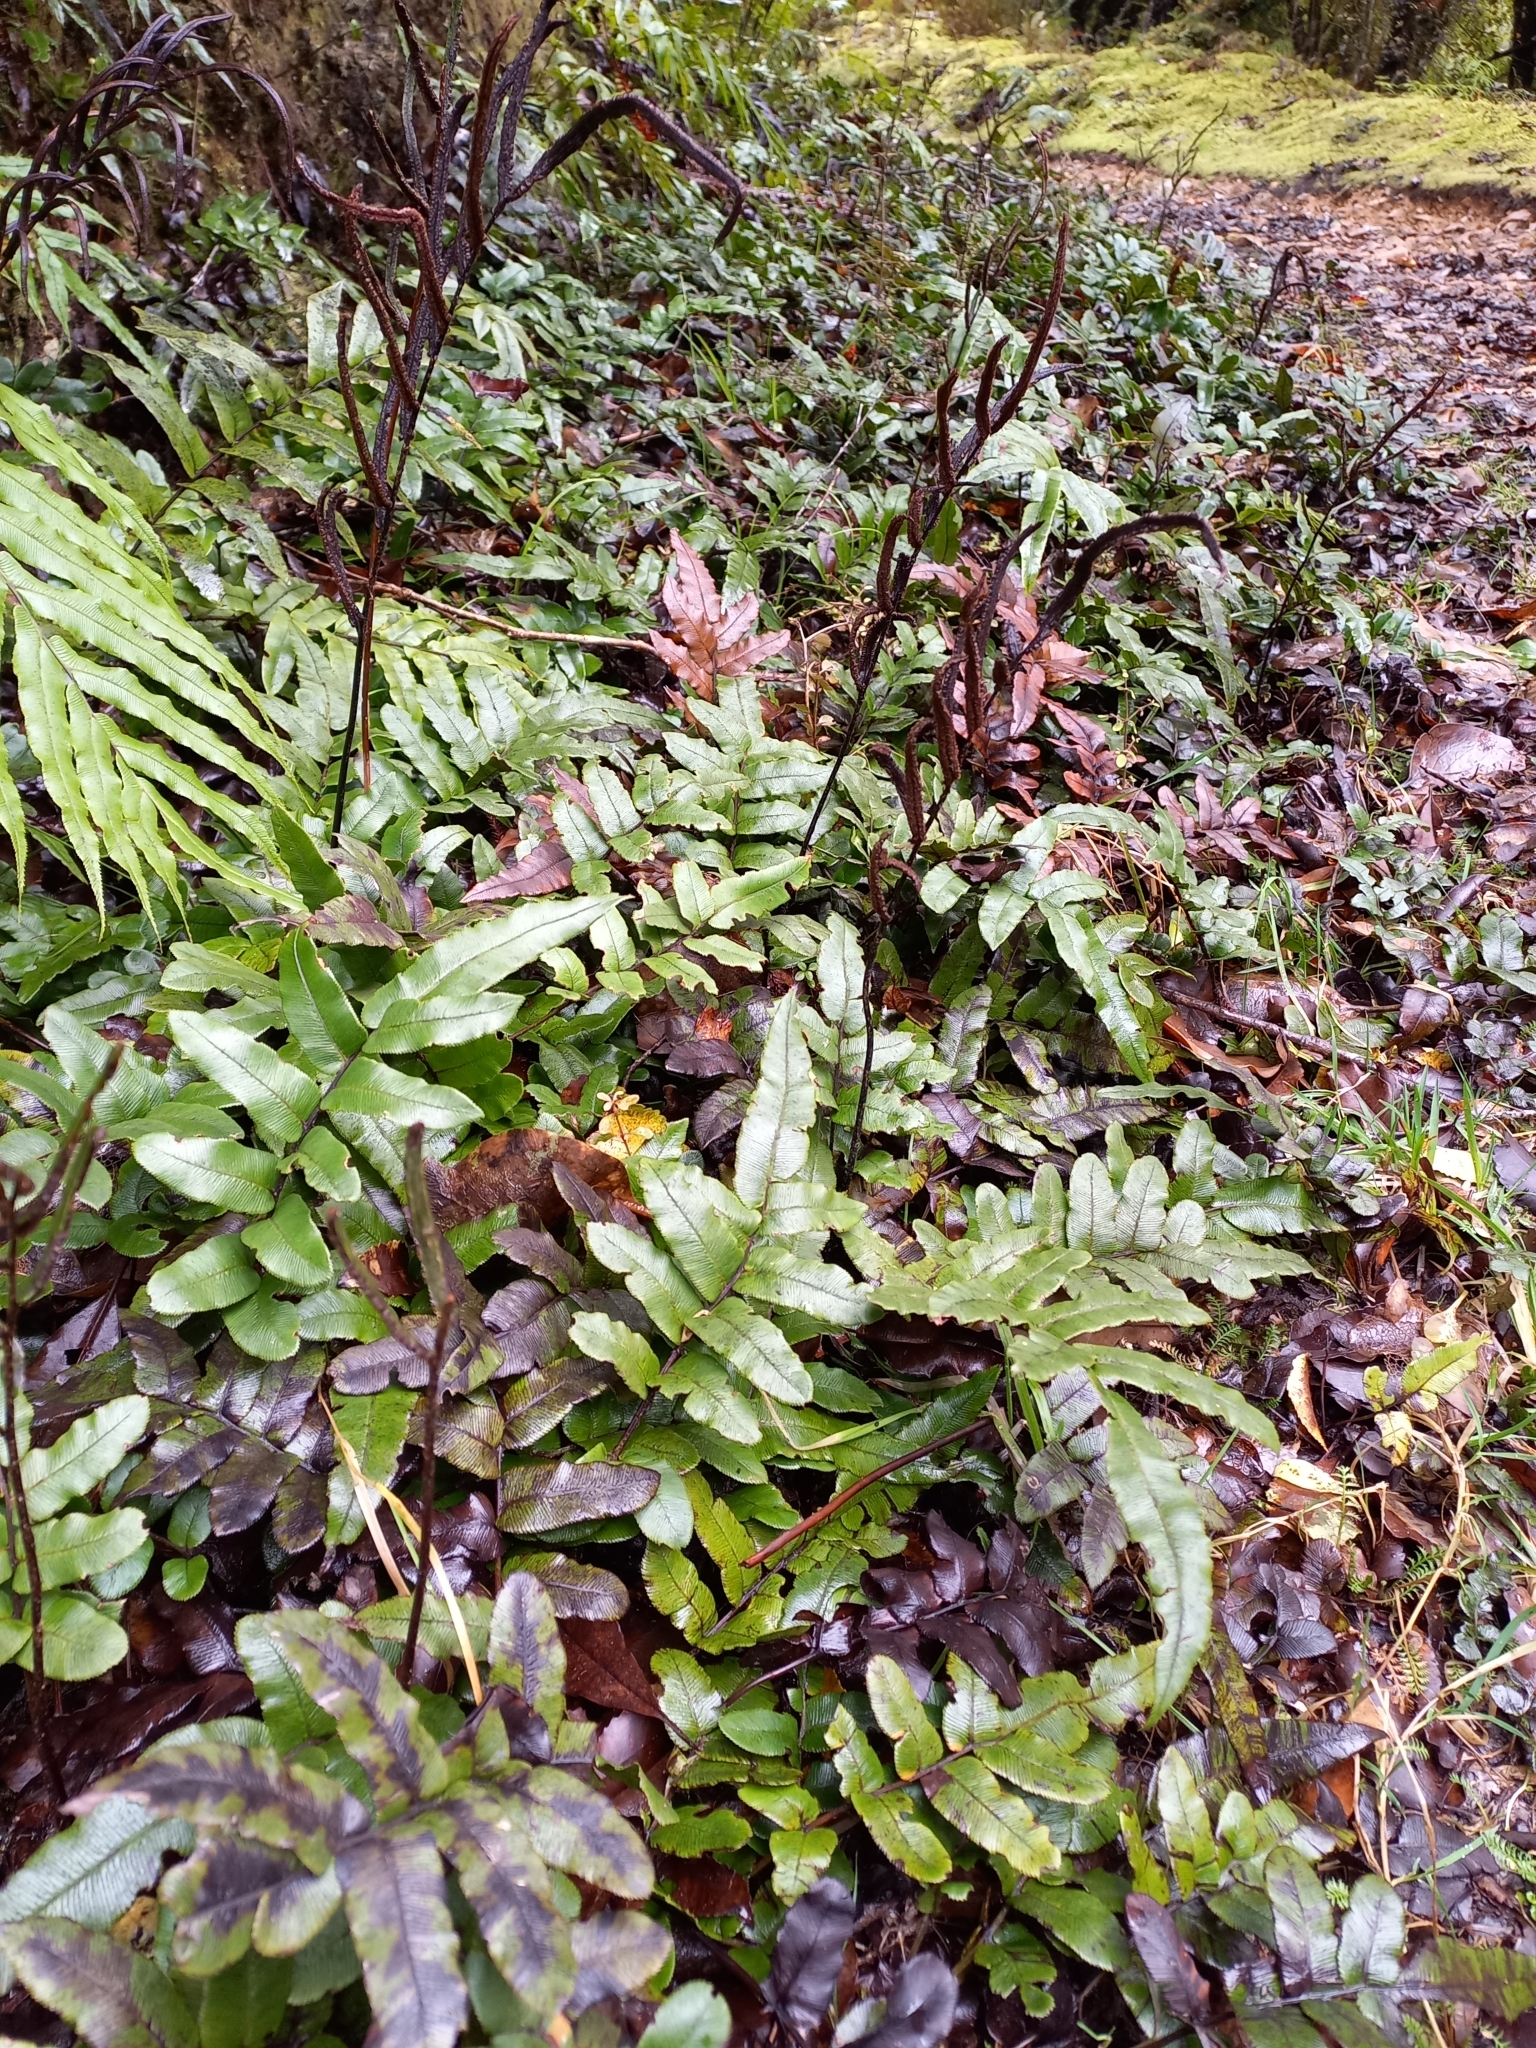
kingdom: Plantae
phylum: Tracheophyta
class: Polypodiopsida
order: Polypodiales
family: Blechnaceae
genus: Parablechnum
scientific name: Parablechnum procerum
